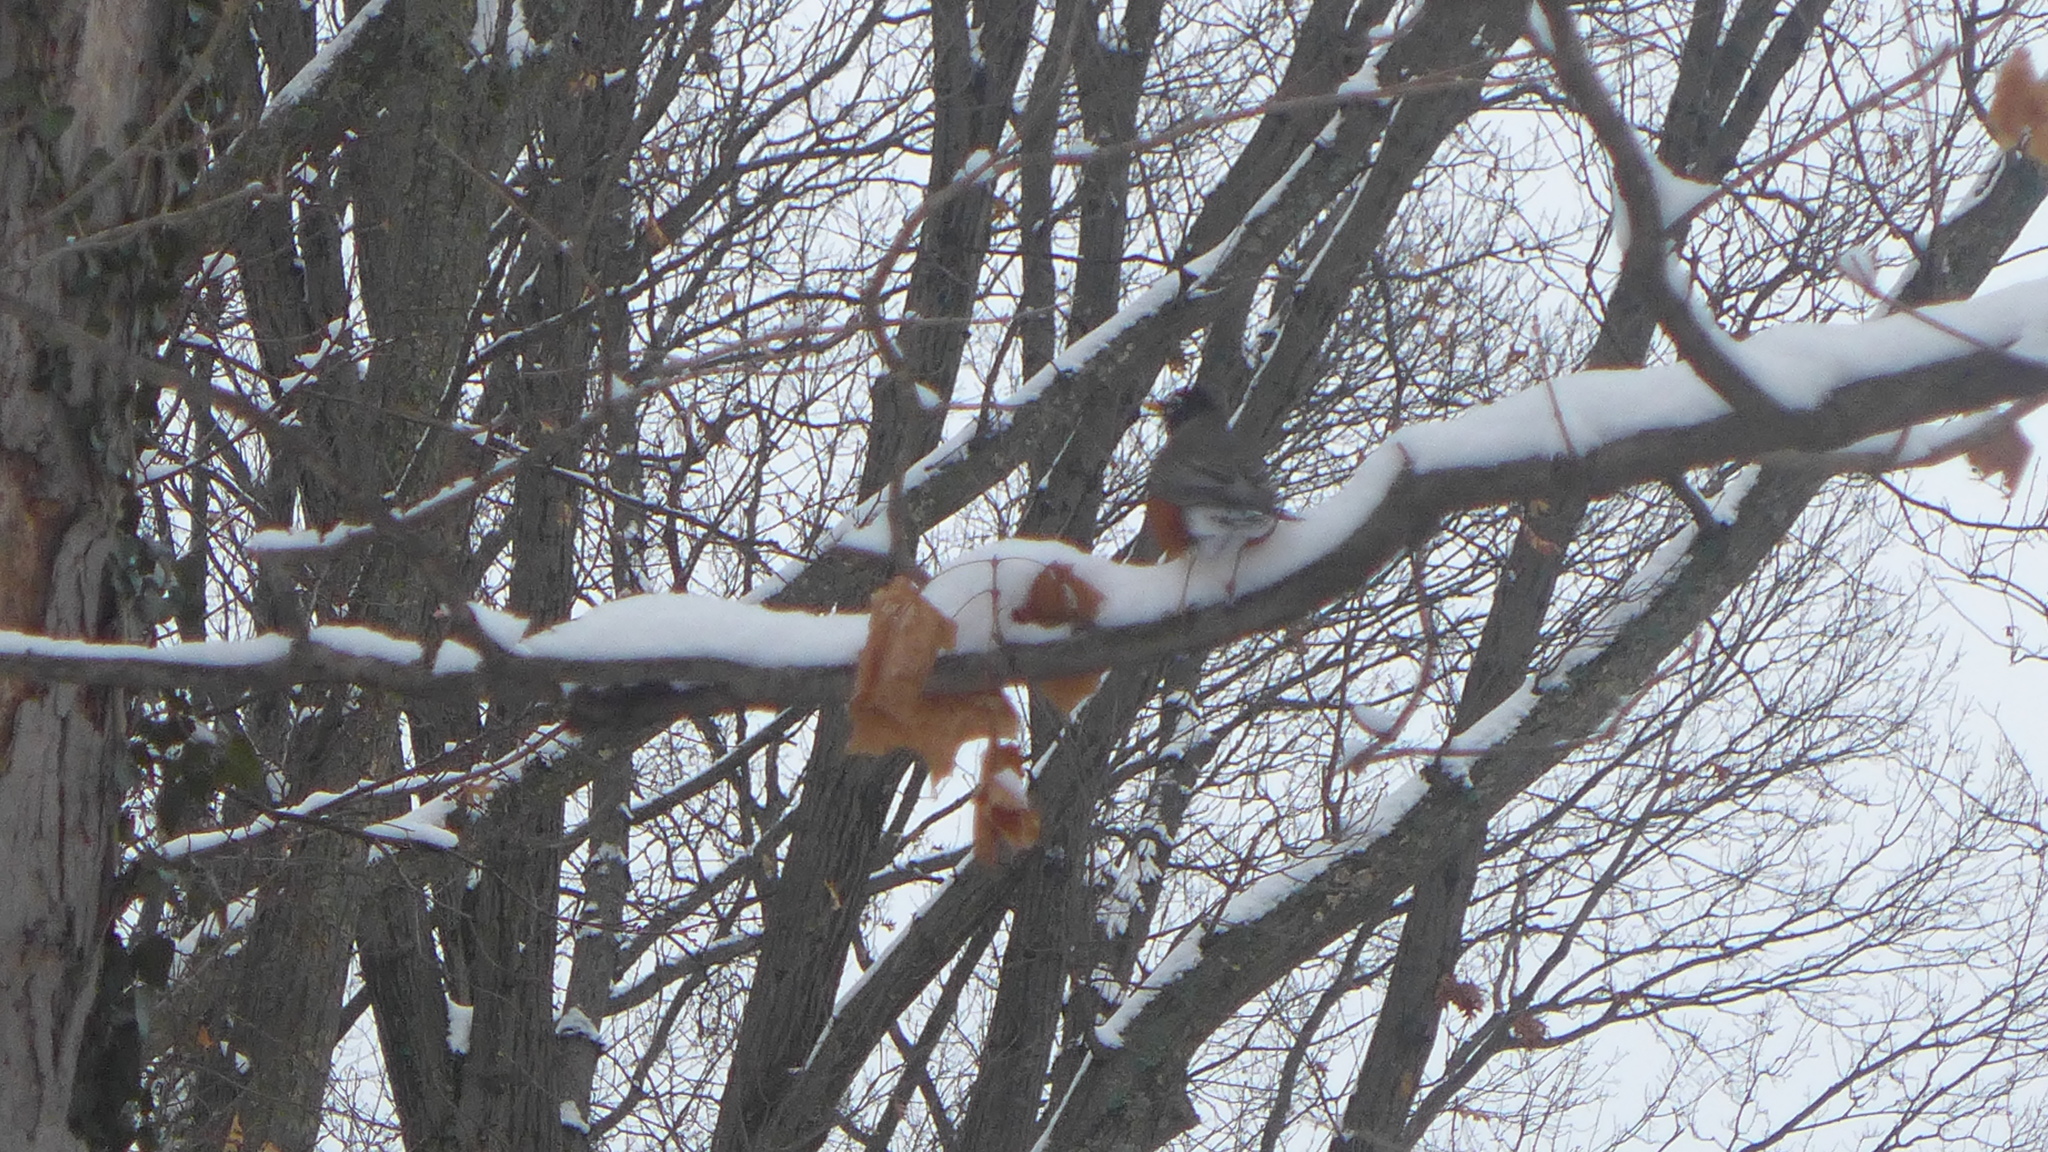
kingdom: Animalia
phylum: Chordata
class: Aves
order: Passeriformes
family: Turdidae
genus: Turdus
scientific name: Turdus migratorius
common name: American robin
